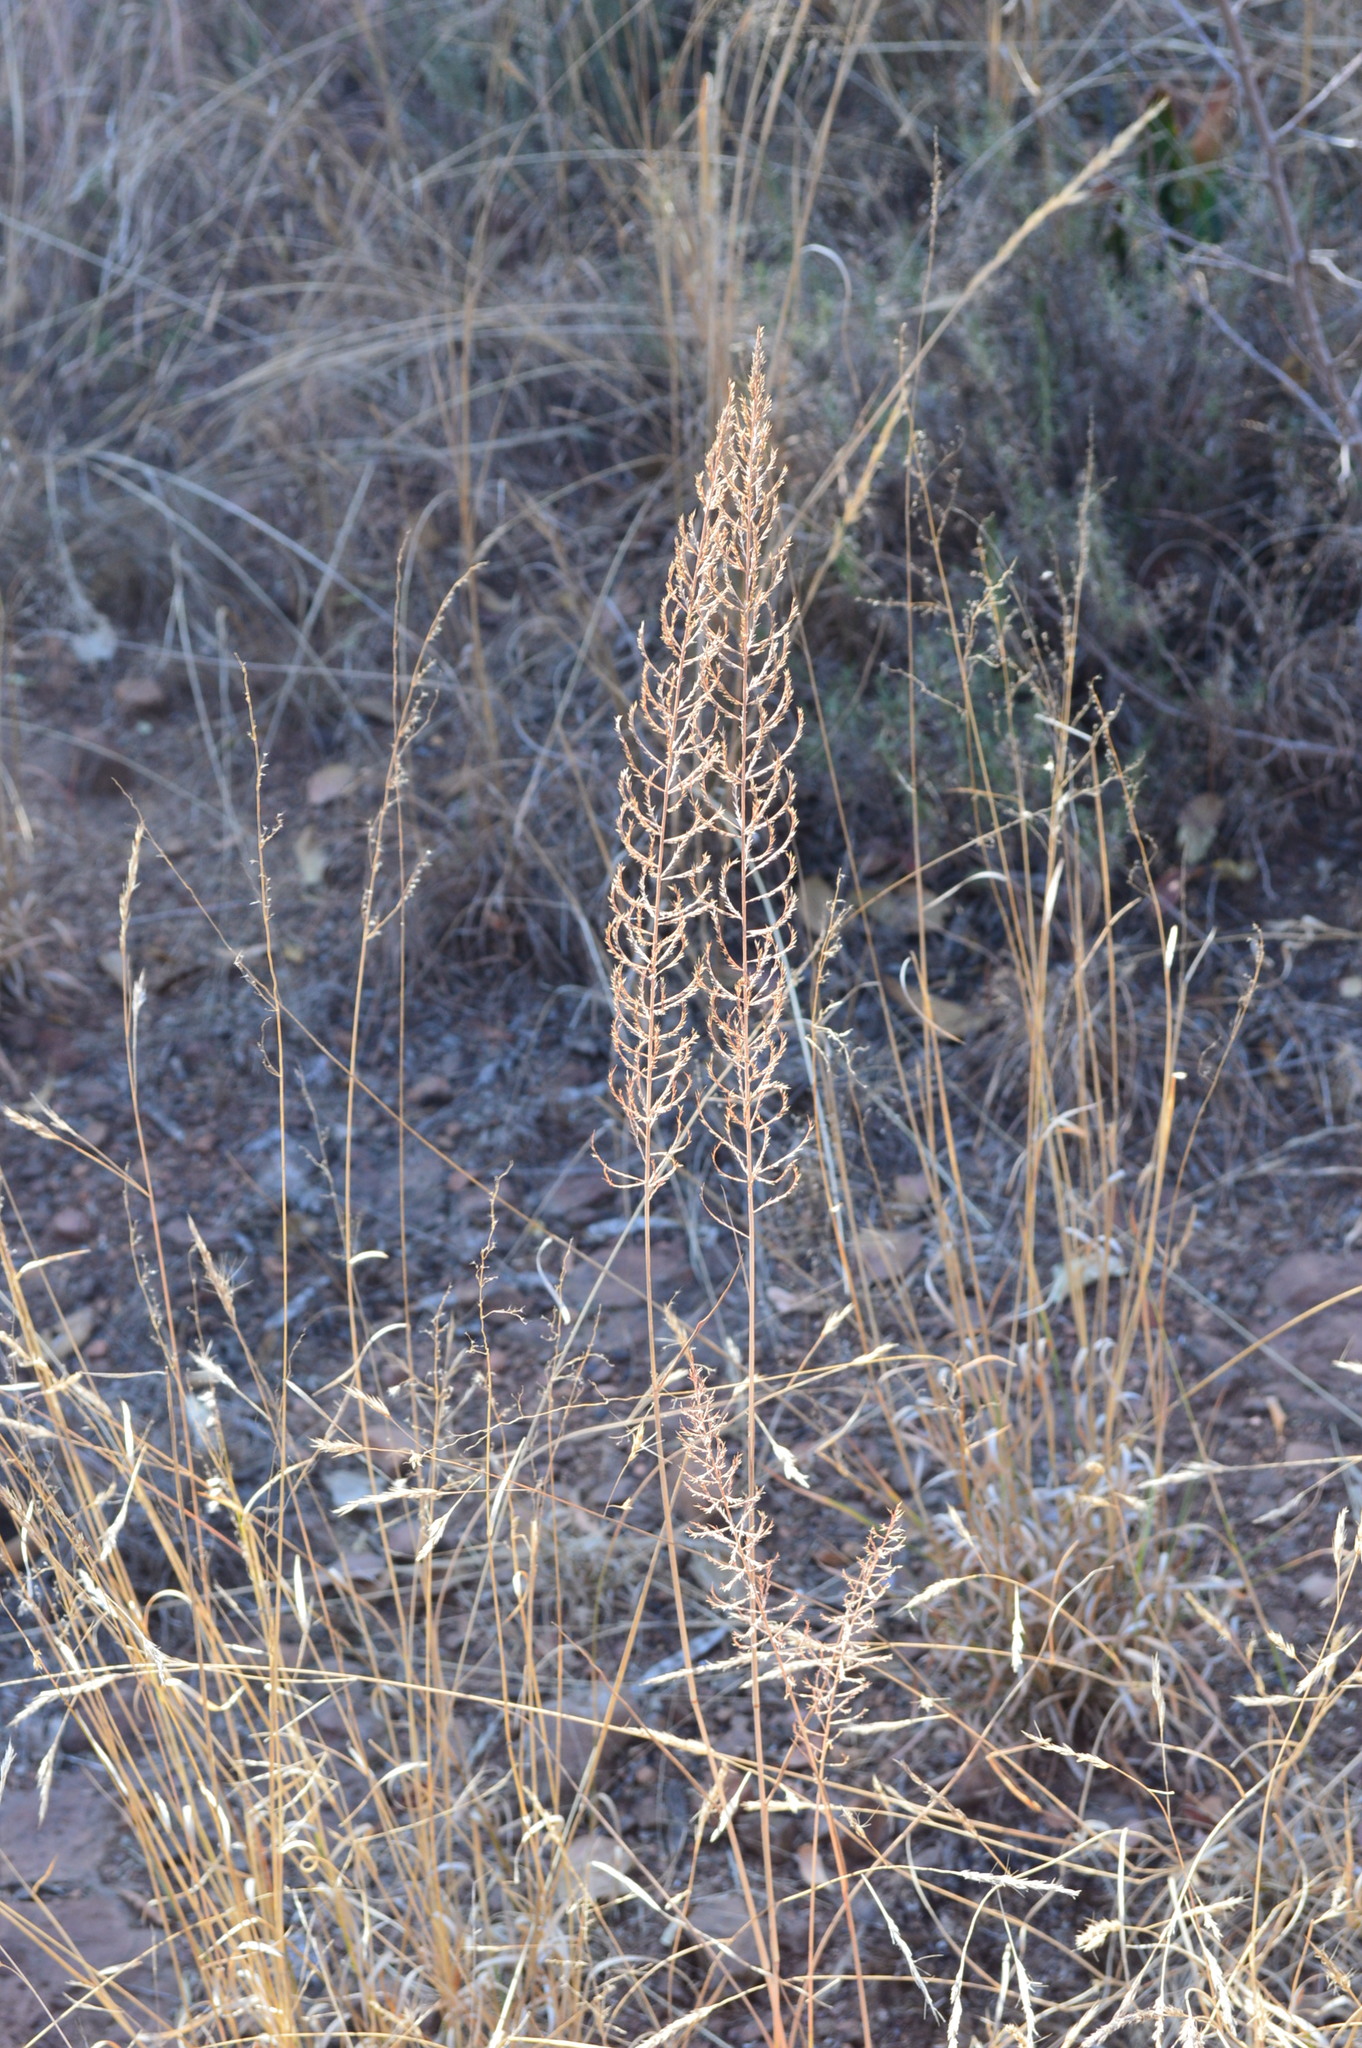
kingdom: Plantae
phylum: Tracheophyta
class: Liliopsida
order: Poales
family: Poaceae
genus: Pogonarthria
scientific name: Pogonarthria squarrosa
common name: Grass
